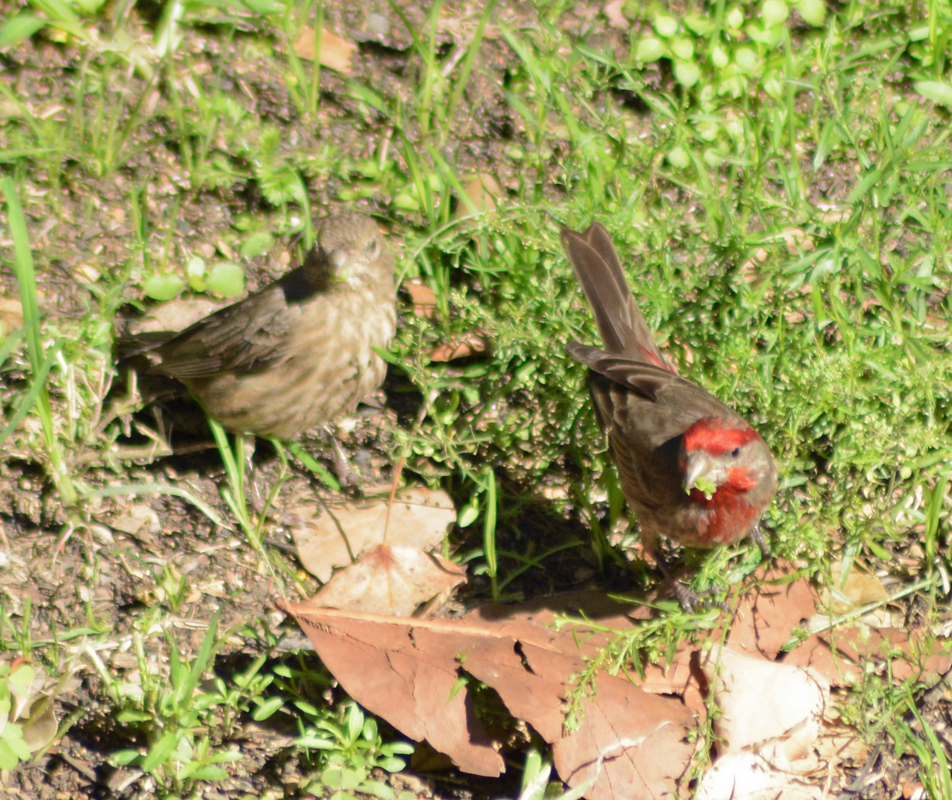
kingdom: Animalia
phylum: Chordata
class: Aves
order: Passeriformes
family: Fringillidae
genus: Haemorhous
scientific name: Haemorhous mexicanus
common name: House finch
